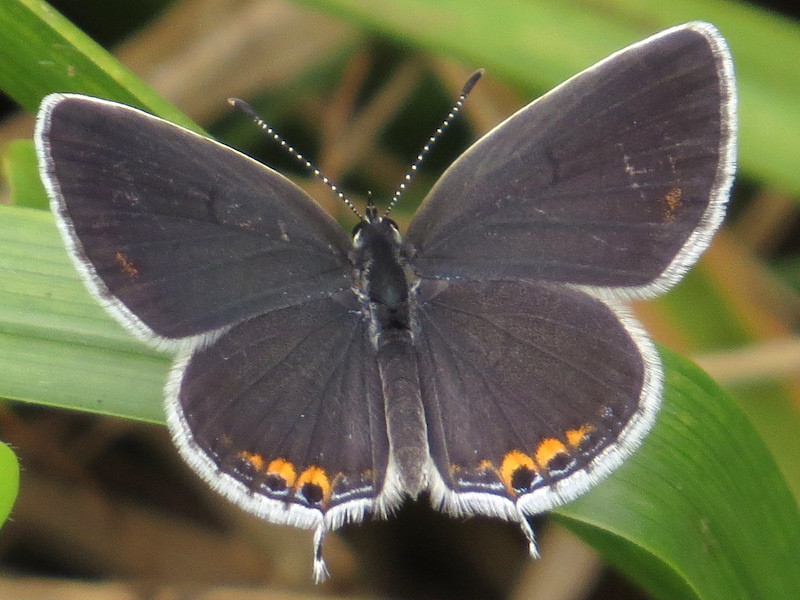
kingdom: Animalia
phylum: Arthropoda
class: Insecta
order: Lepidoptera
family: Lycaenidae
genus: Elkalyce
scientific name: Elkalyce comyntas
